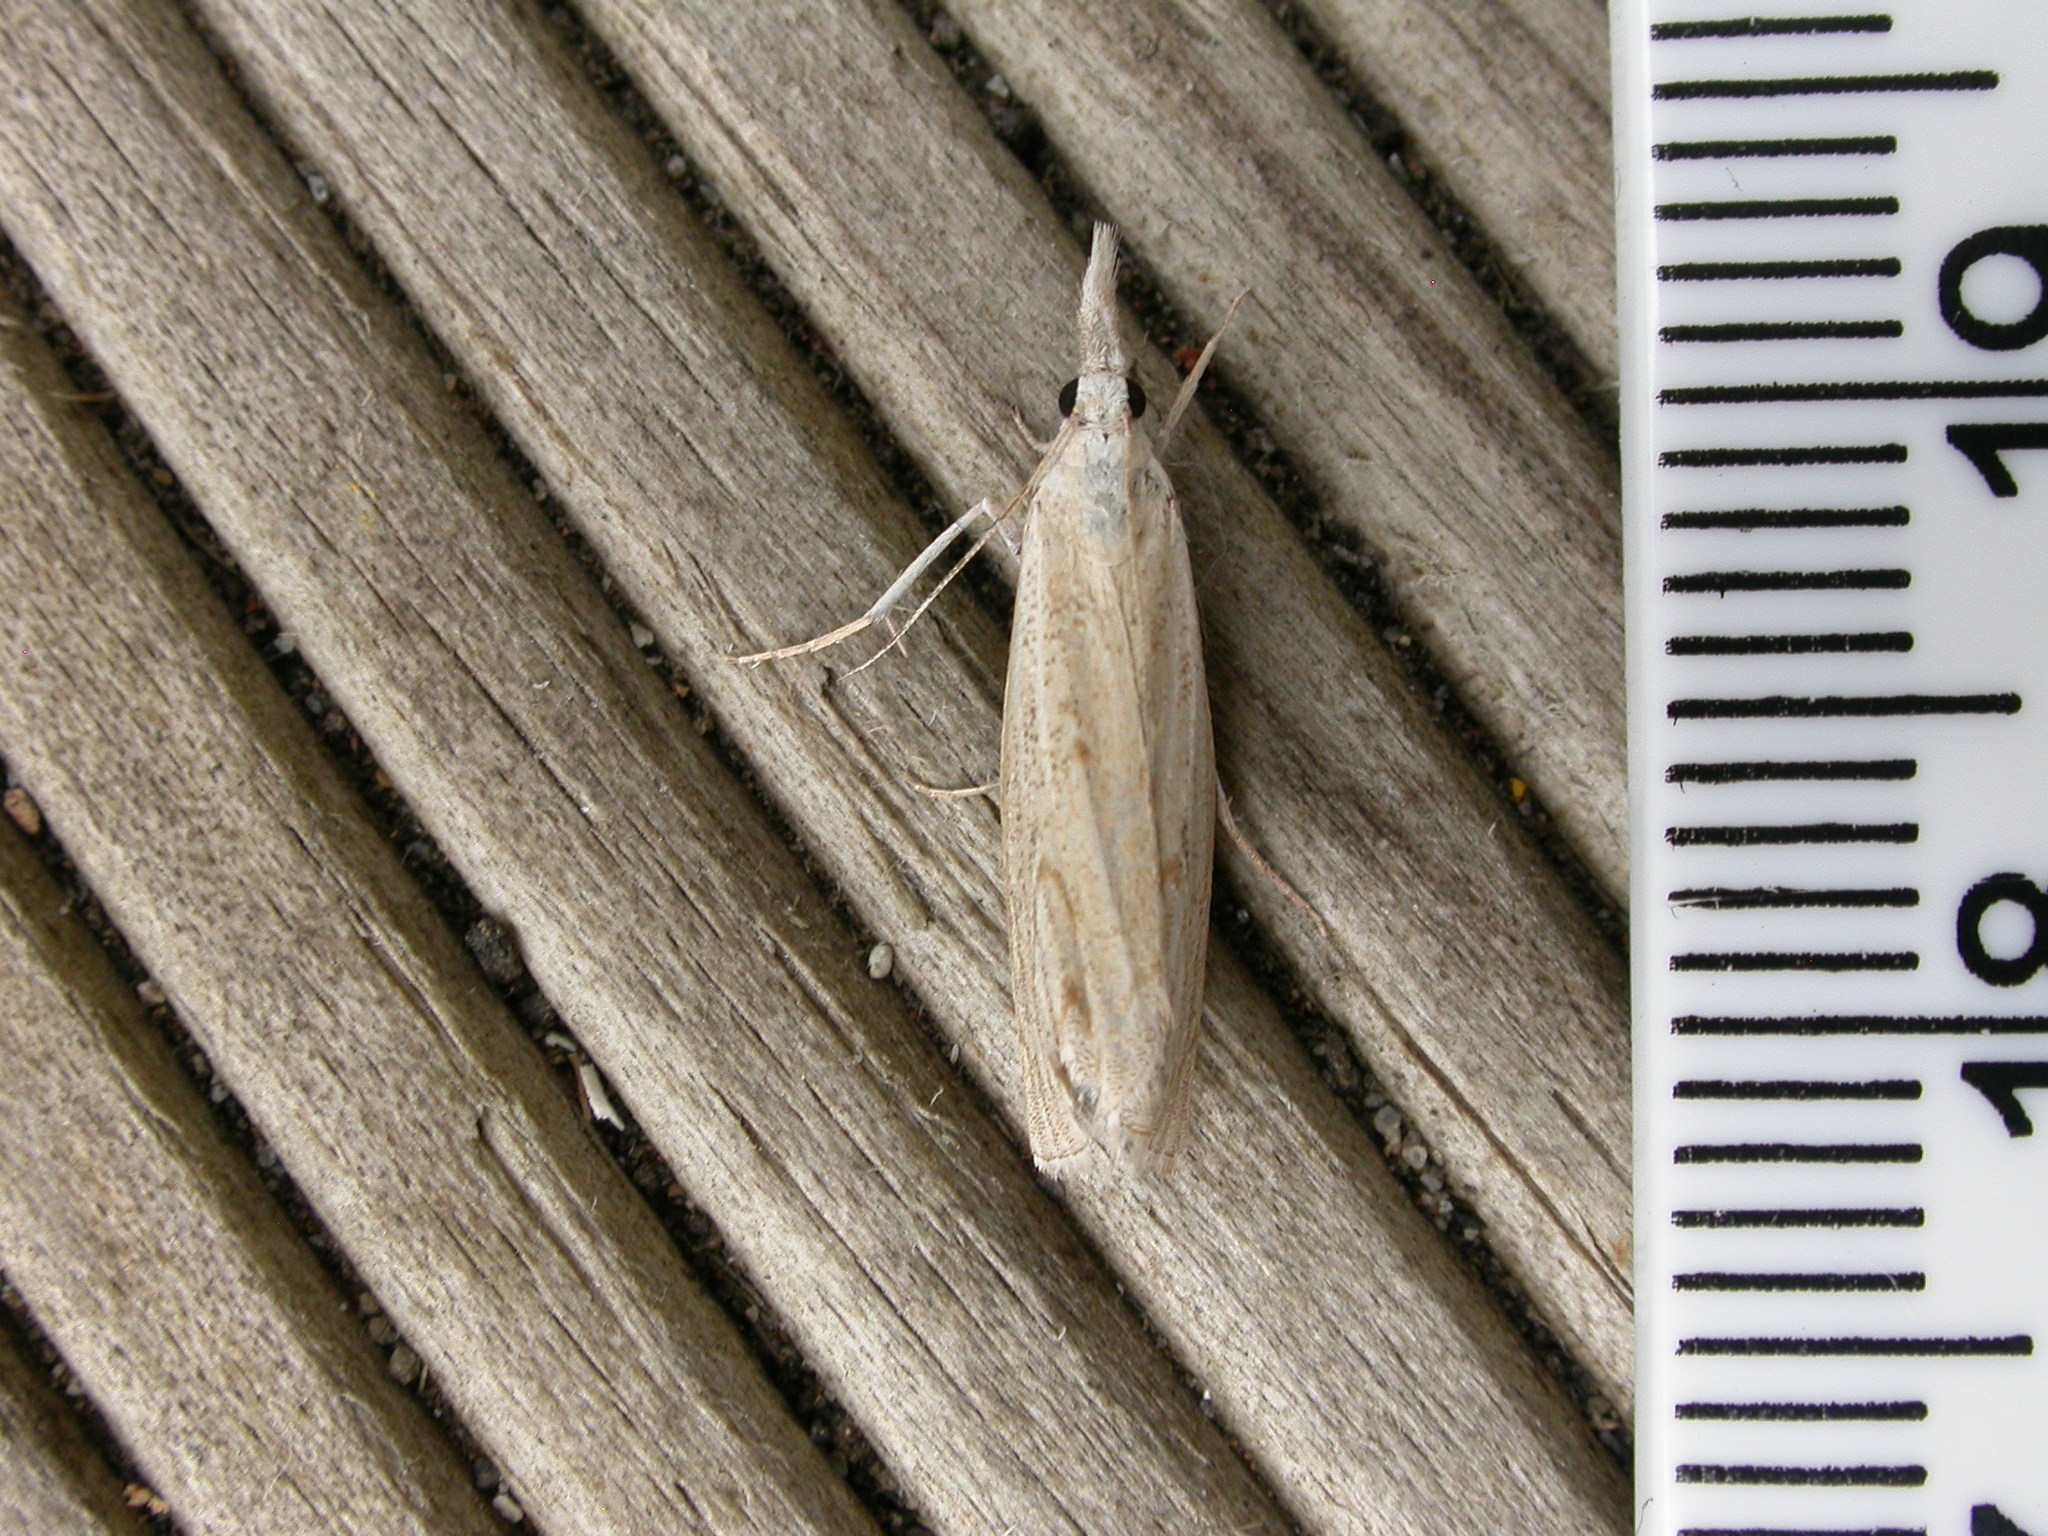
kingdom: Animalia
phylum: Arthropoda
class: Insecta
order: Lepidoptera
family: Crambidae
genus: Culladia
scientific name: Culladia cuneiferellus
